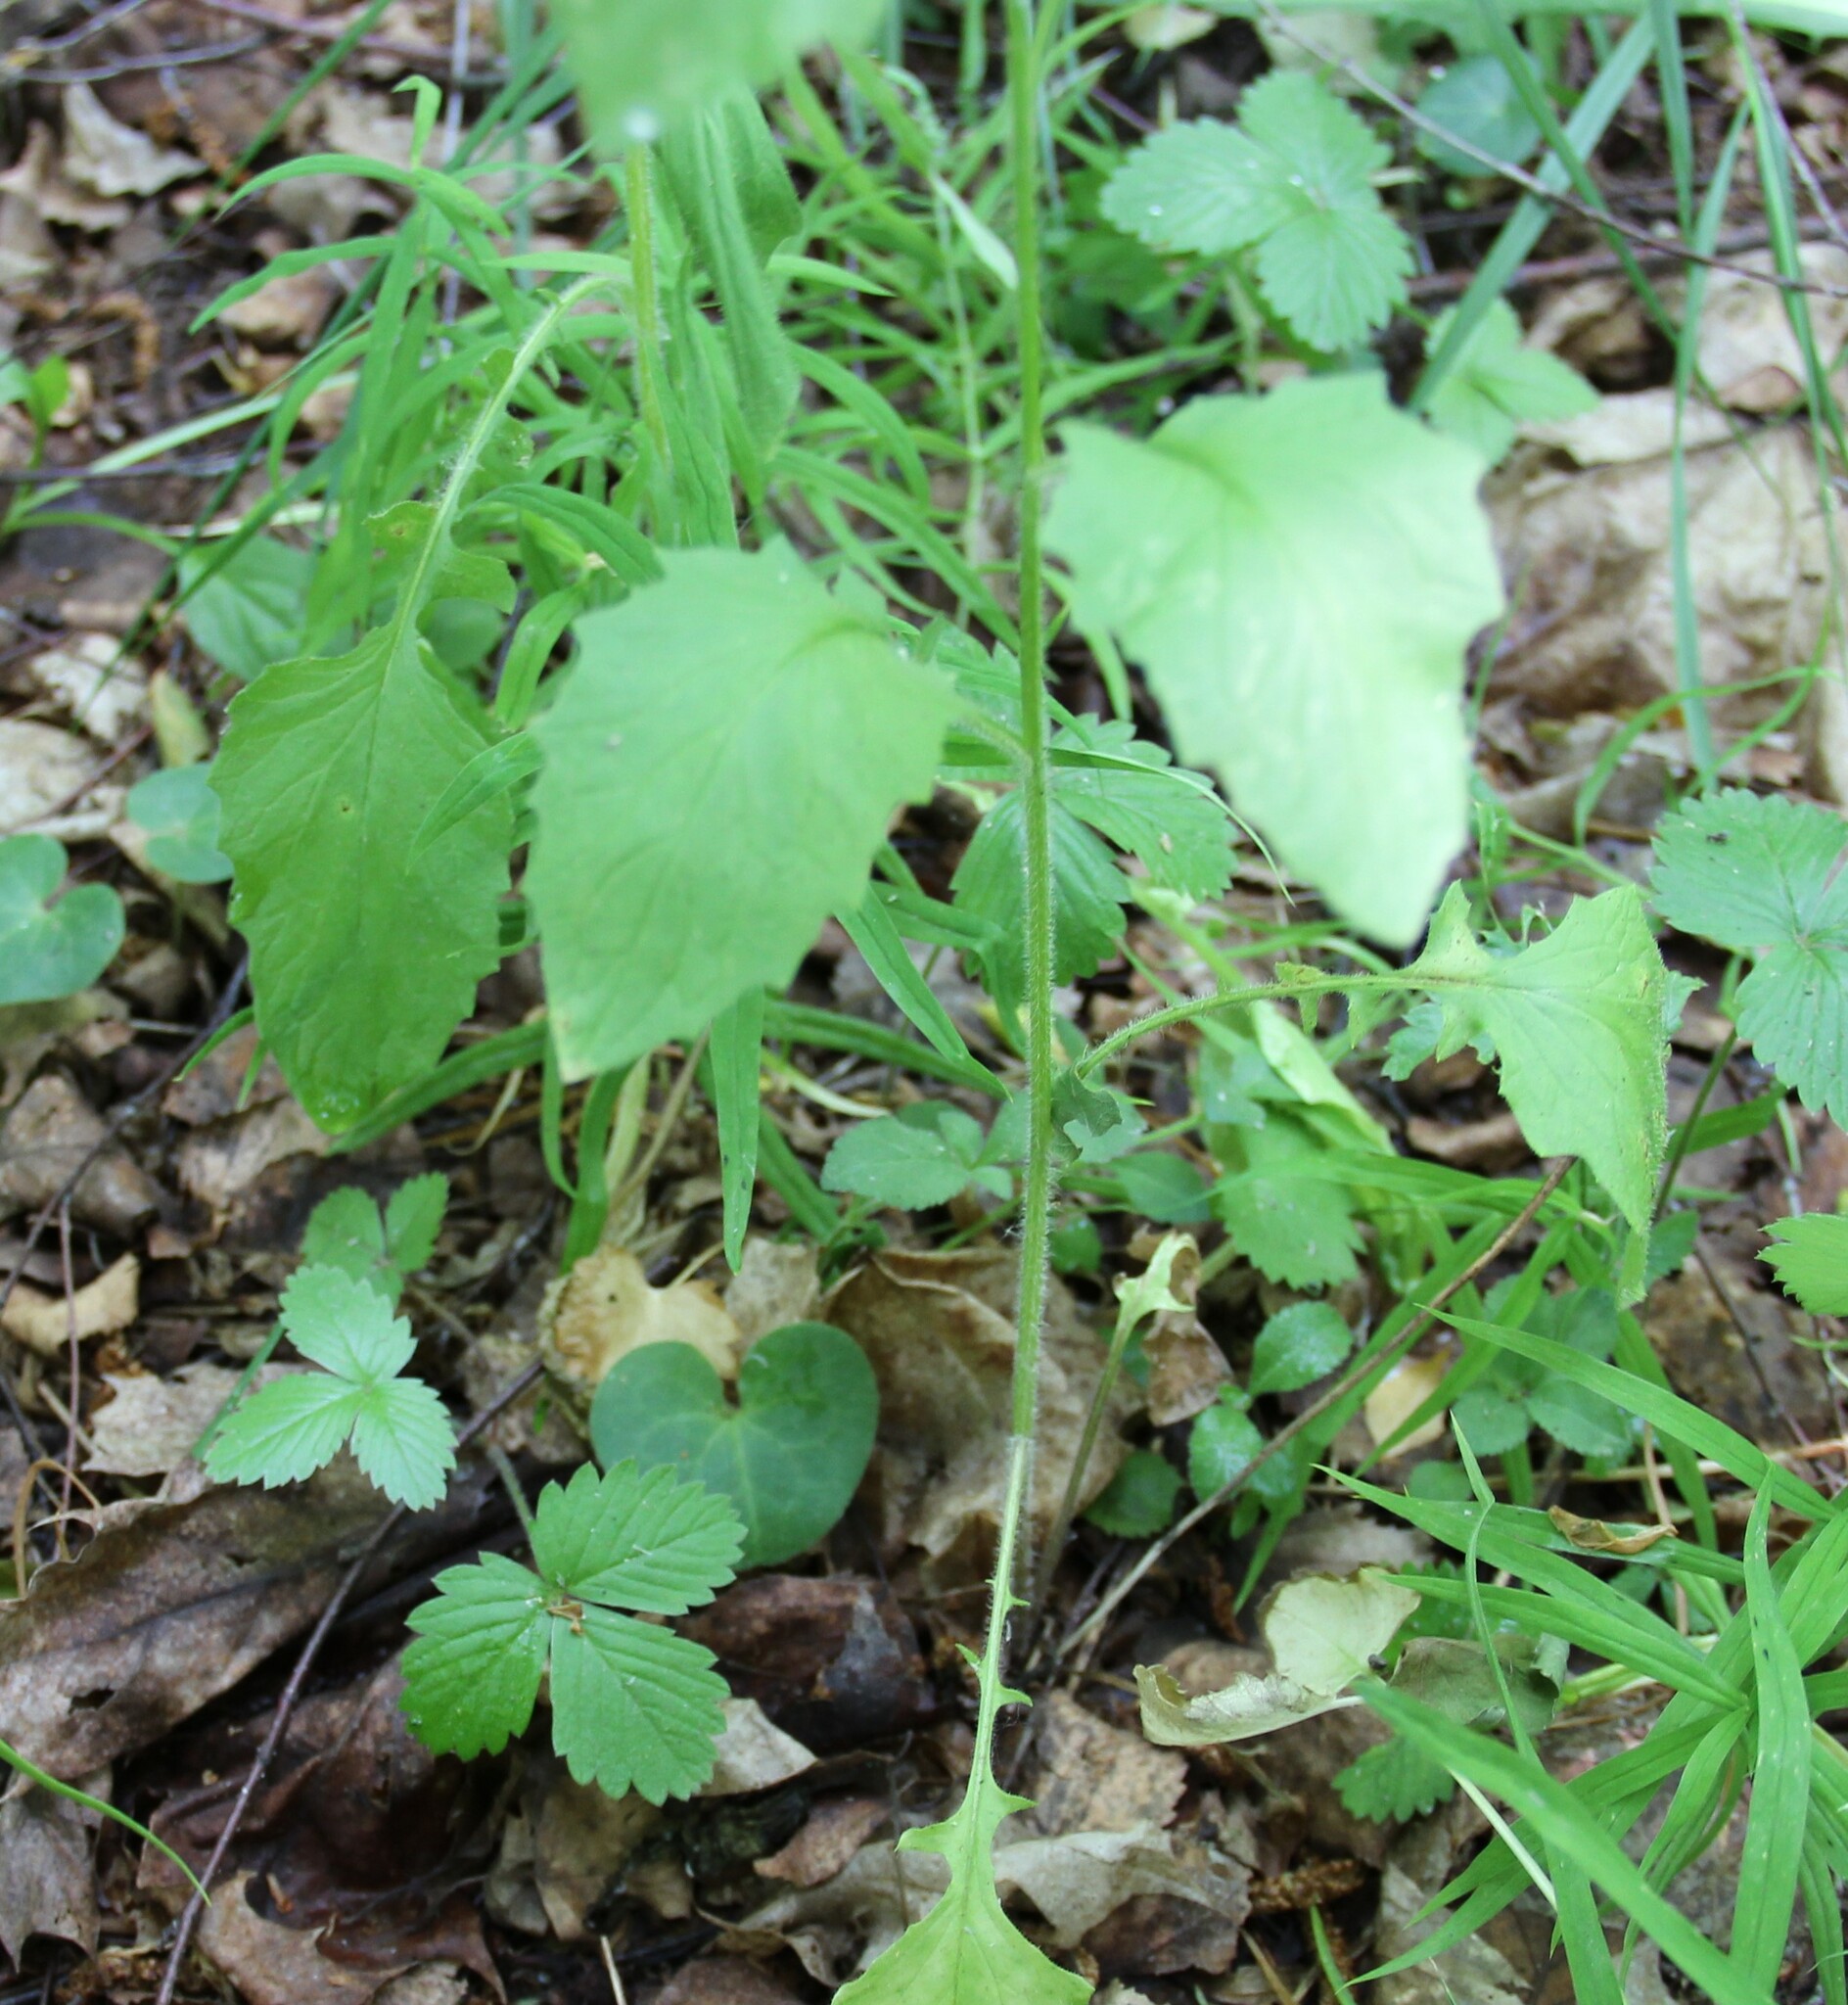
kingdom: Plantae
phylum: Tracheophyta
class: Magnoliopsida
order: Asterales
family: Asteraceae
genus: Lapsana
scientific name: Lapsana communis
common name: Nipplewort
